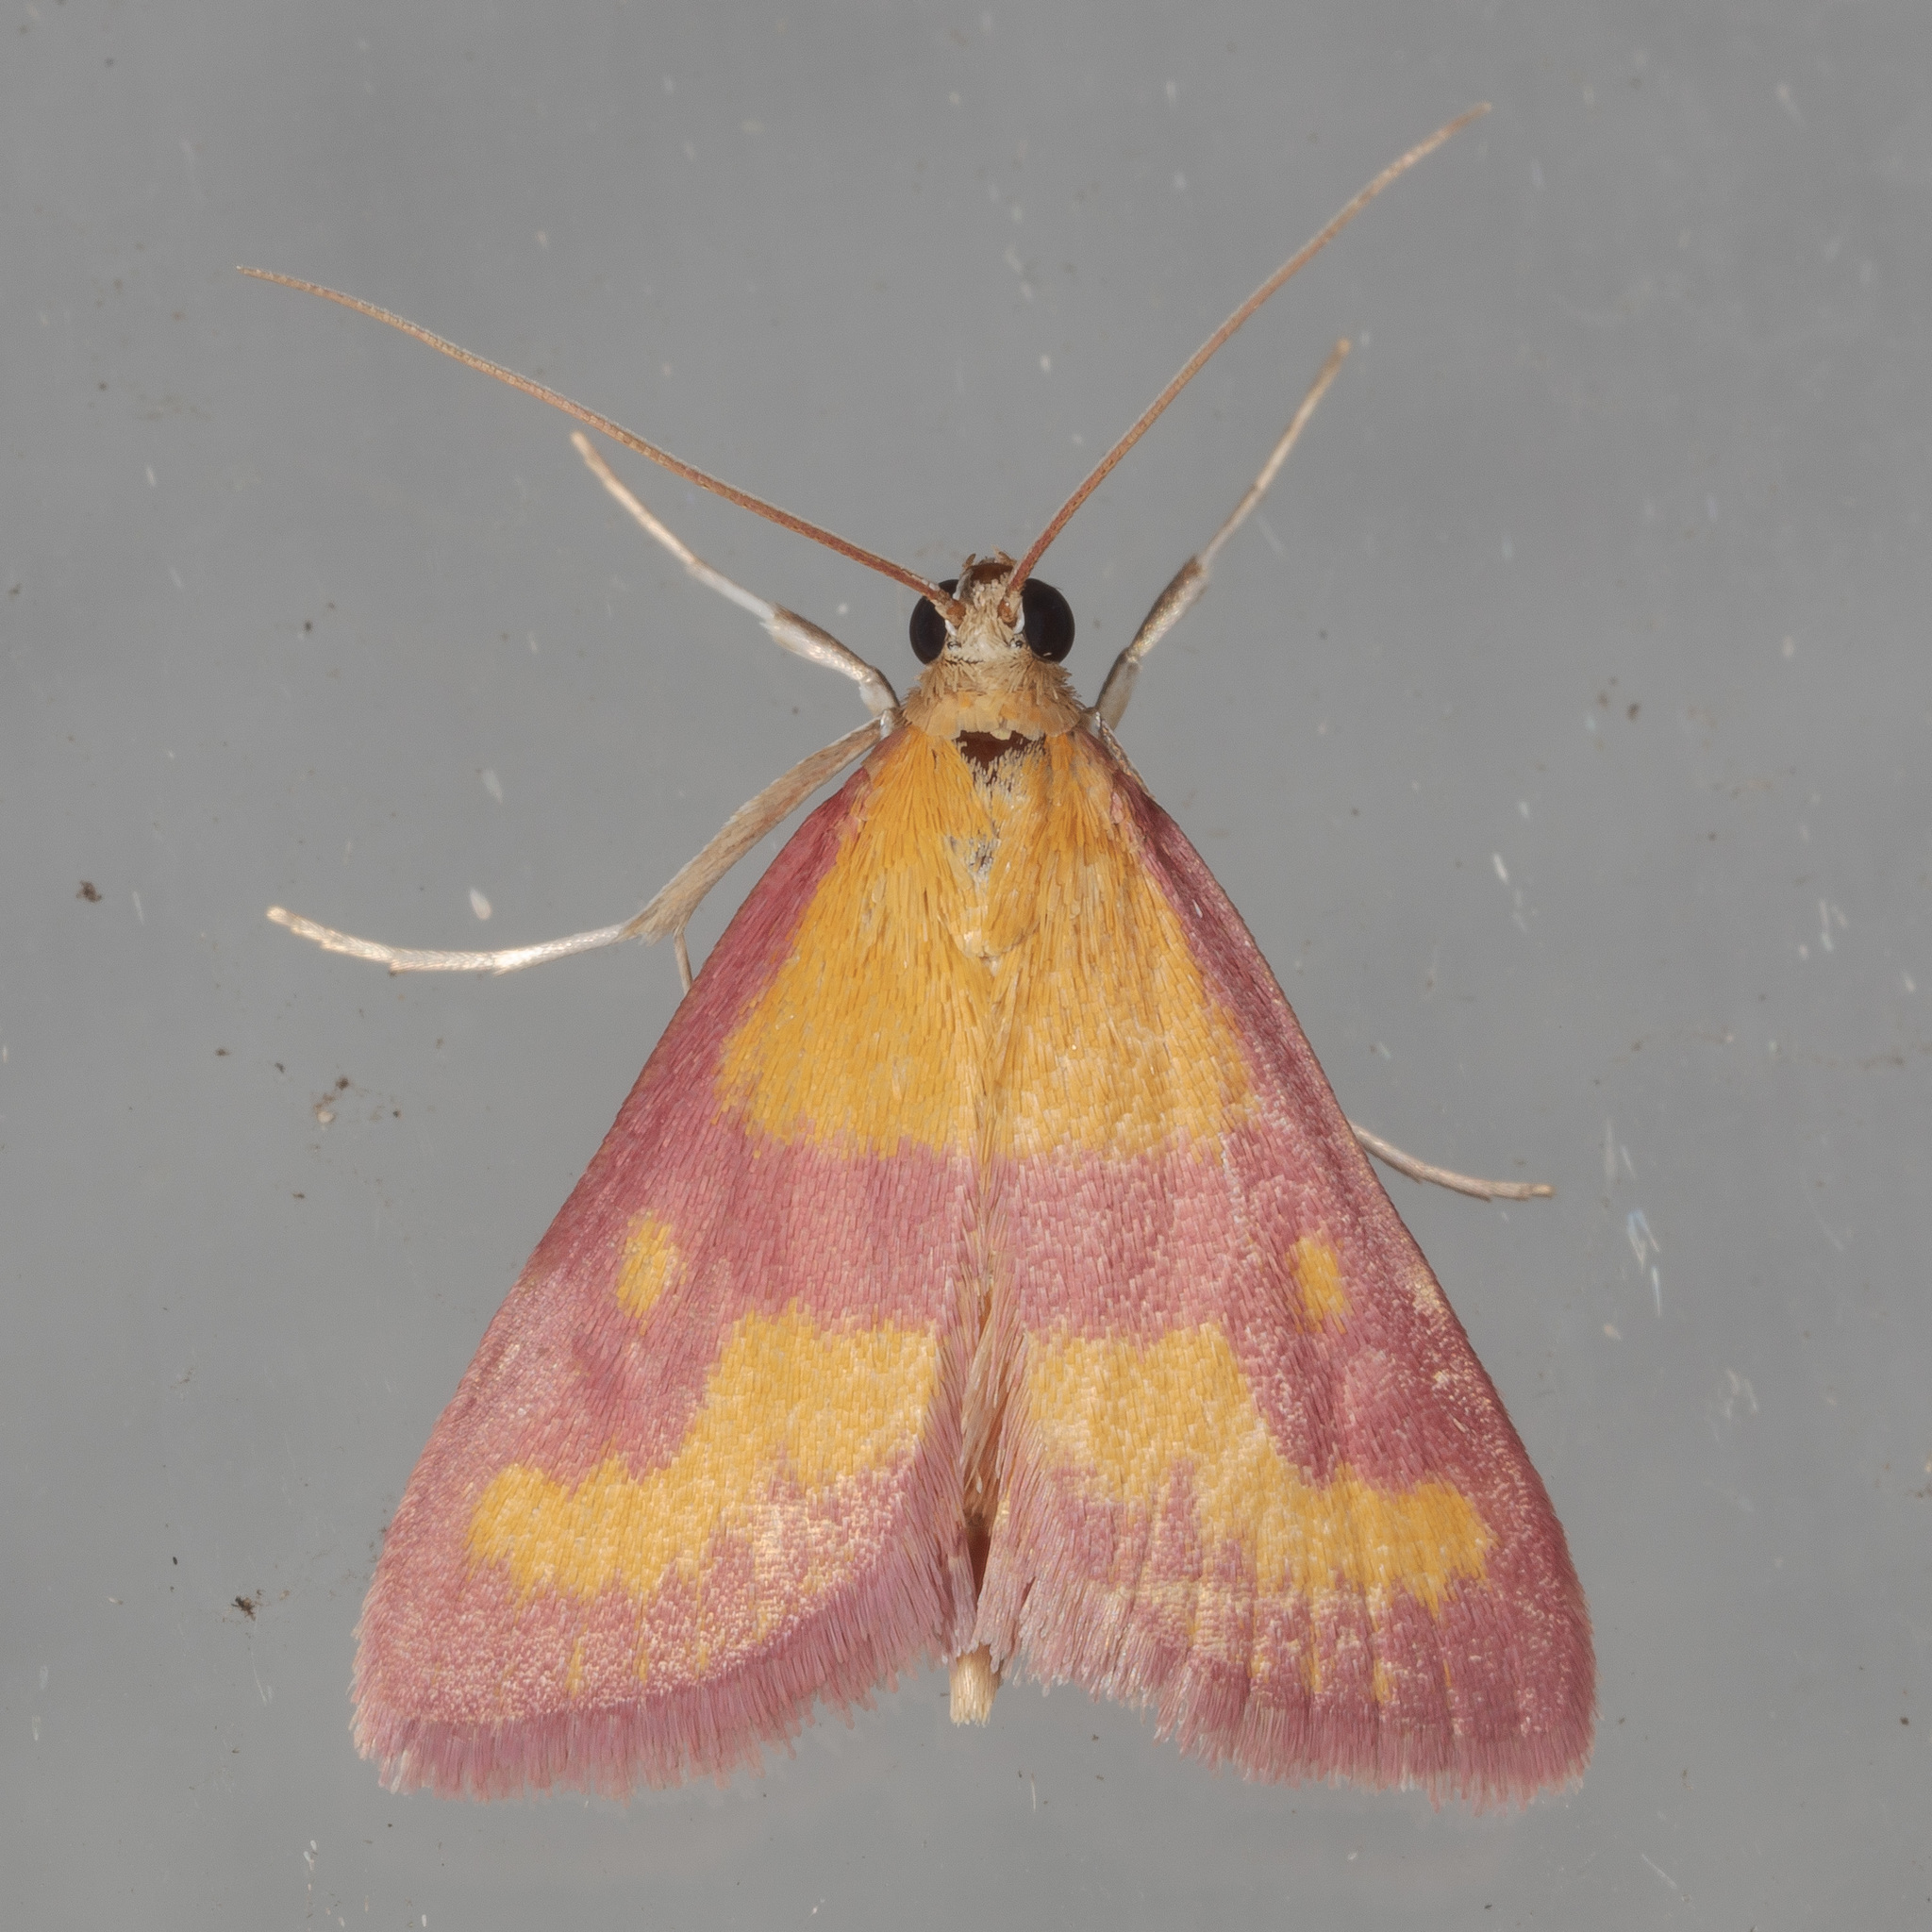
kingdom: Animalia
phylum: Arthropoda
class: Insecta
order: Lepidoptera
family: Crambidae
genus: Pyrausta
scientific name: Pyrausta laticlavia
